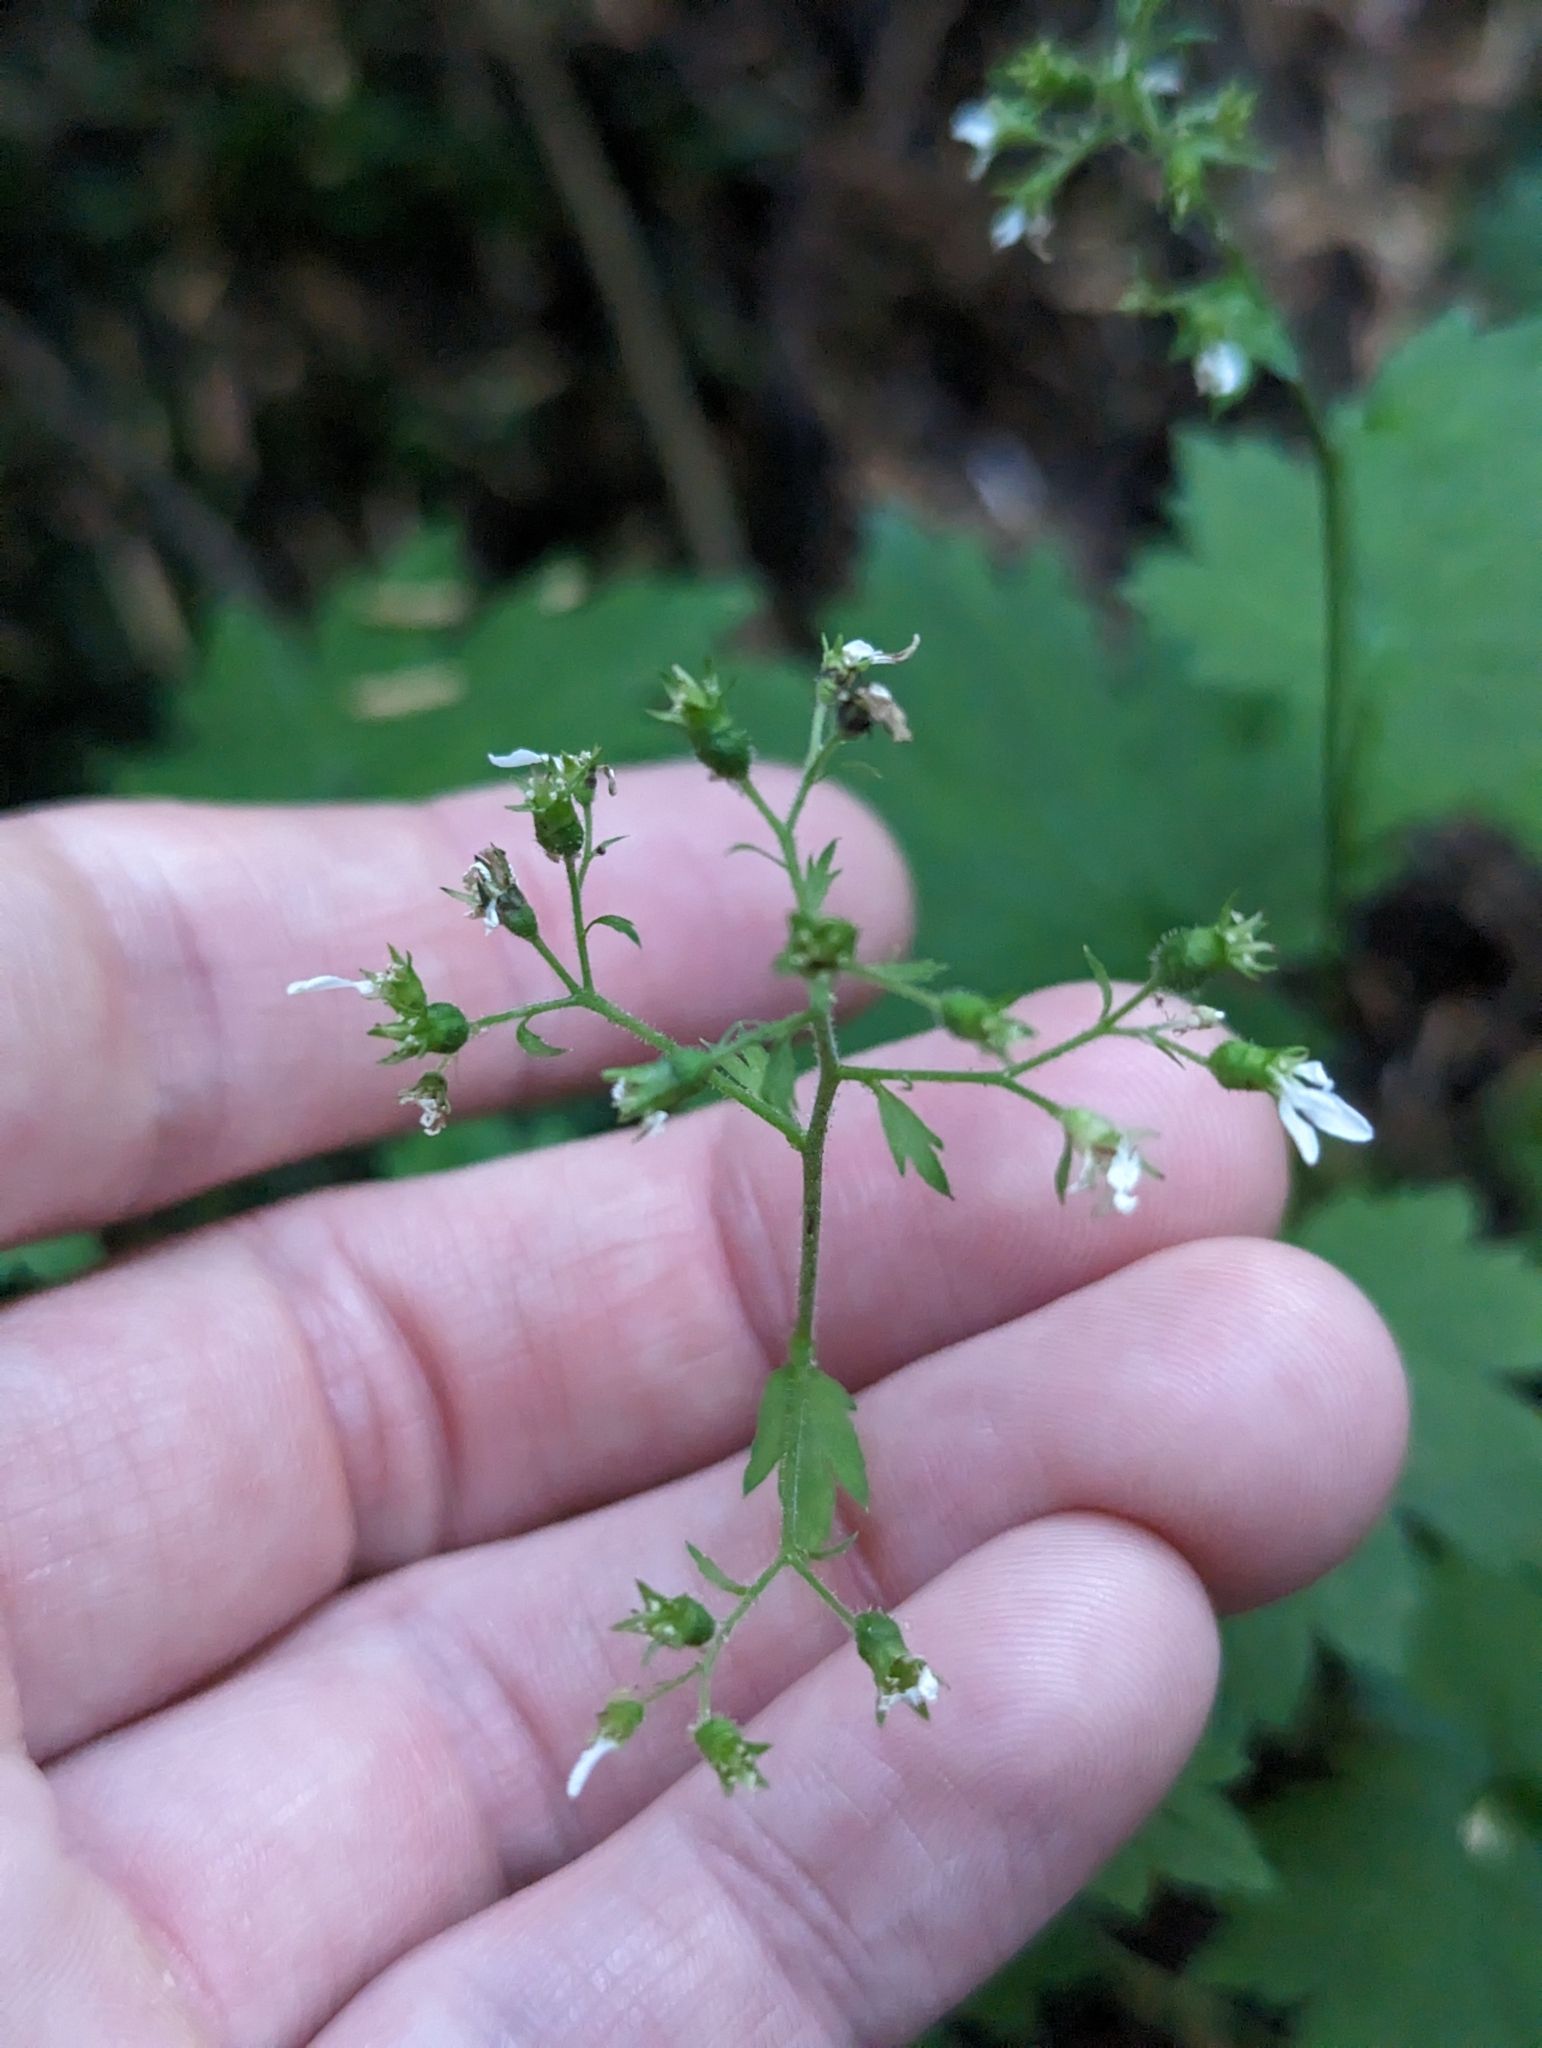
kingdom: Plantae
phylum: Tracheophyta
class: Magnoliopsida
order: Saxifragales
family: Saxifragaceae
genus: Boykinia
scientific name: Boykinia occidentalis
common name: Coast boykinia
